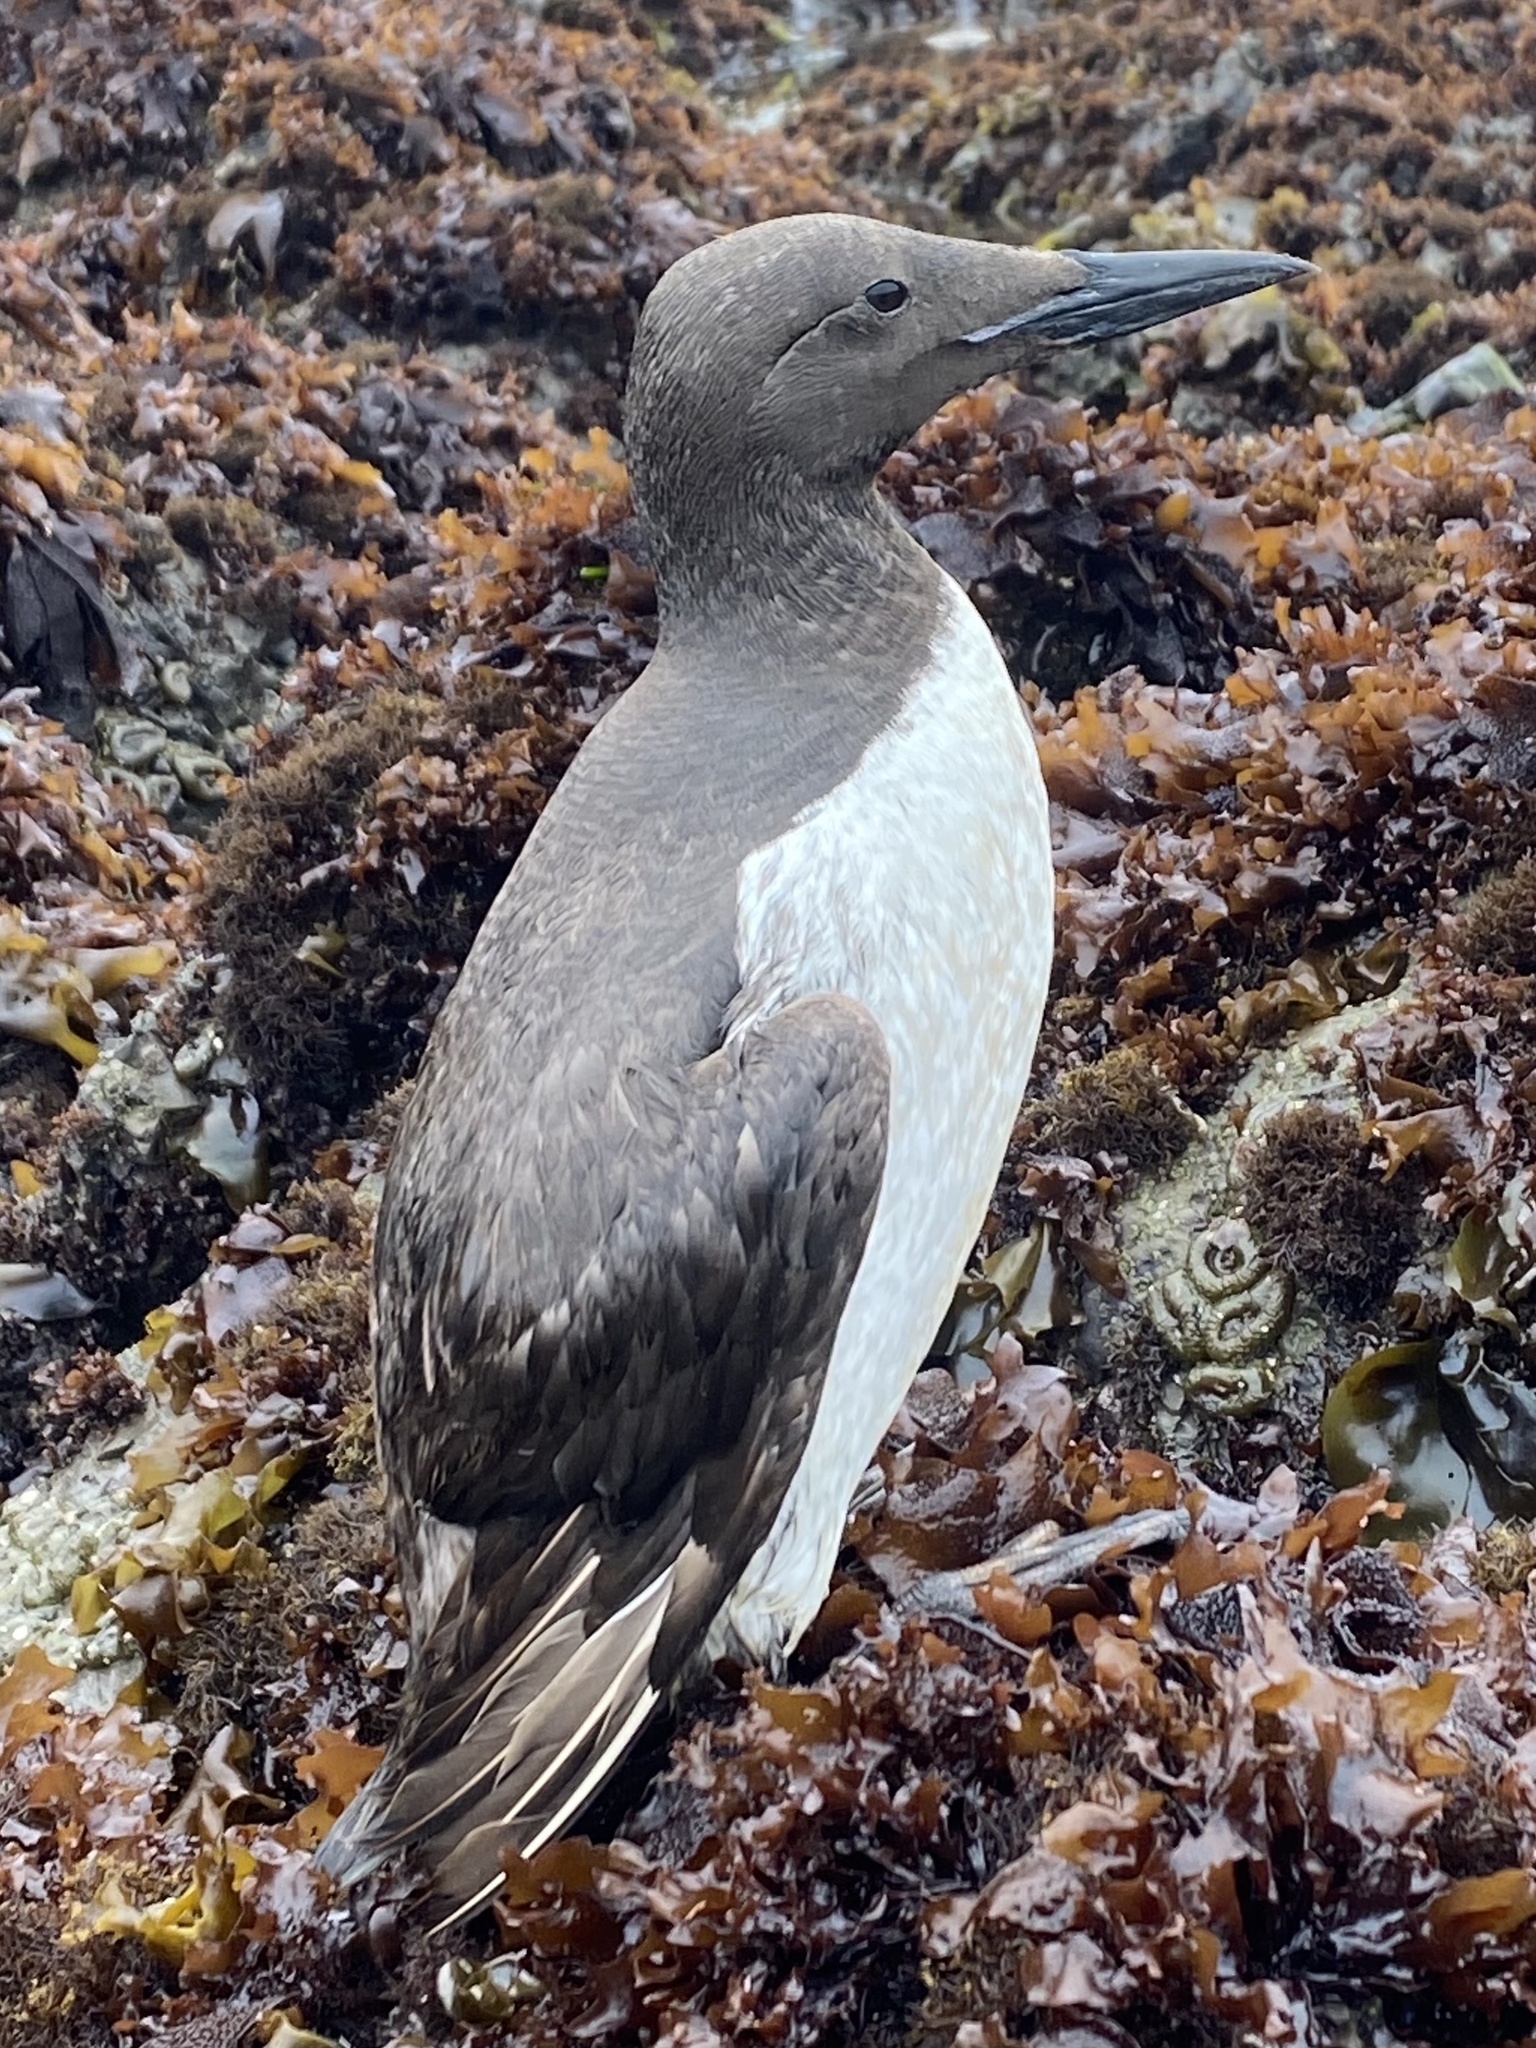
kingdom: Animalia
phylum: Chordata
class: Aves
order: Charadriiformes
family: Alcidae
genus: Uria
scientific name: Uria aalge
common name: Common murre
